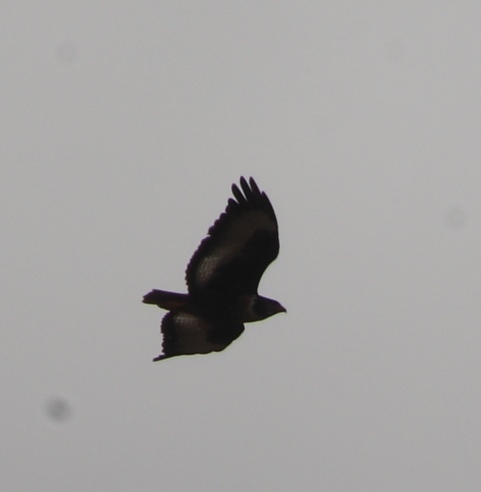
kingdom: Animalia
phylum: Chordata
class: Aves
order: Accipitriformes
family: Accipitridae
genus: Buteo
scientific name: Buteo rufofuscus
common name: Jackal buzzard
